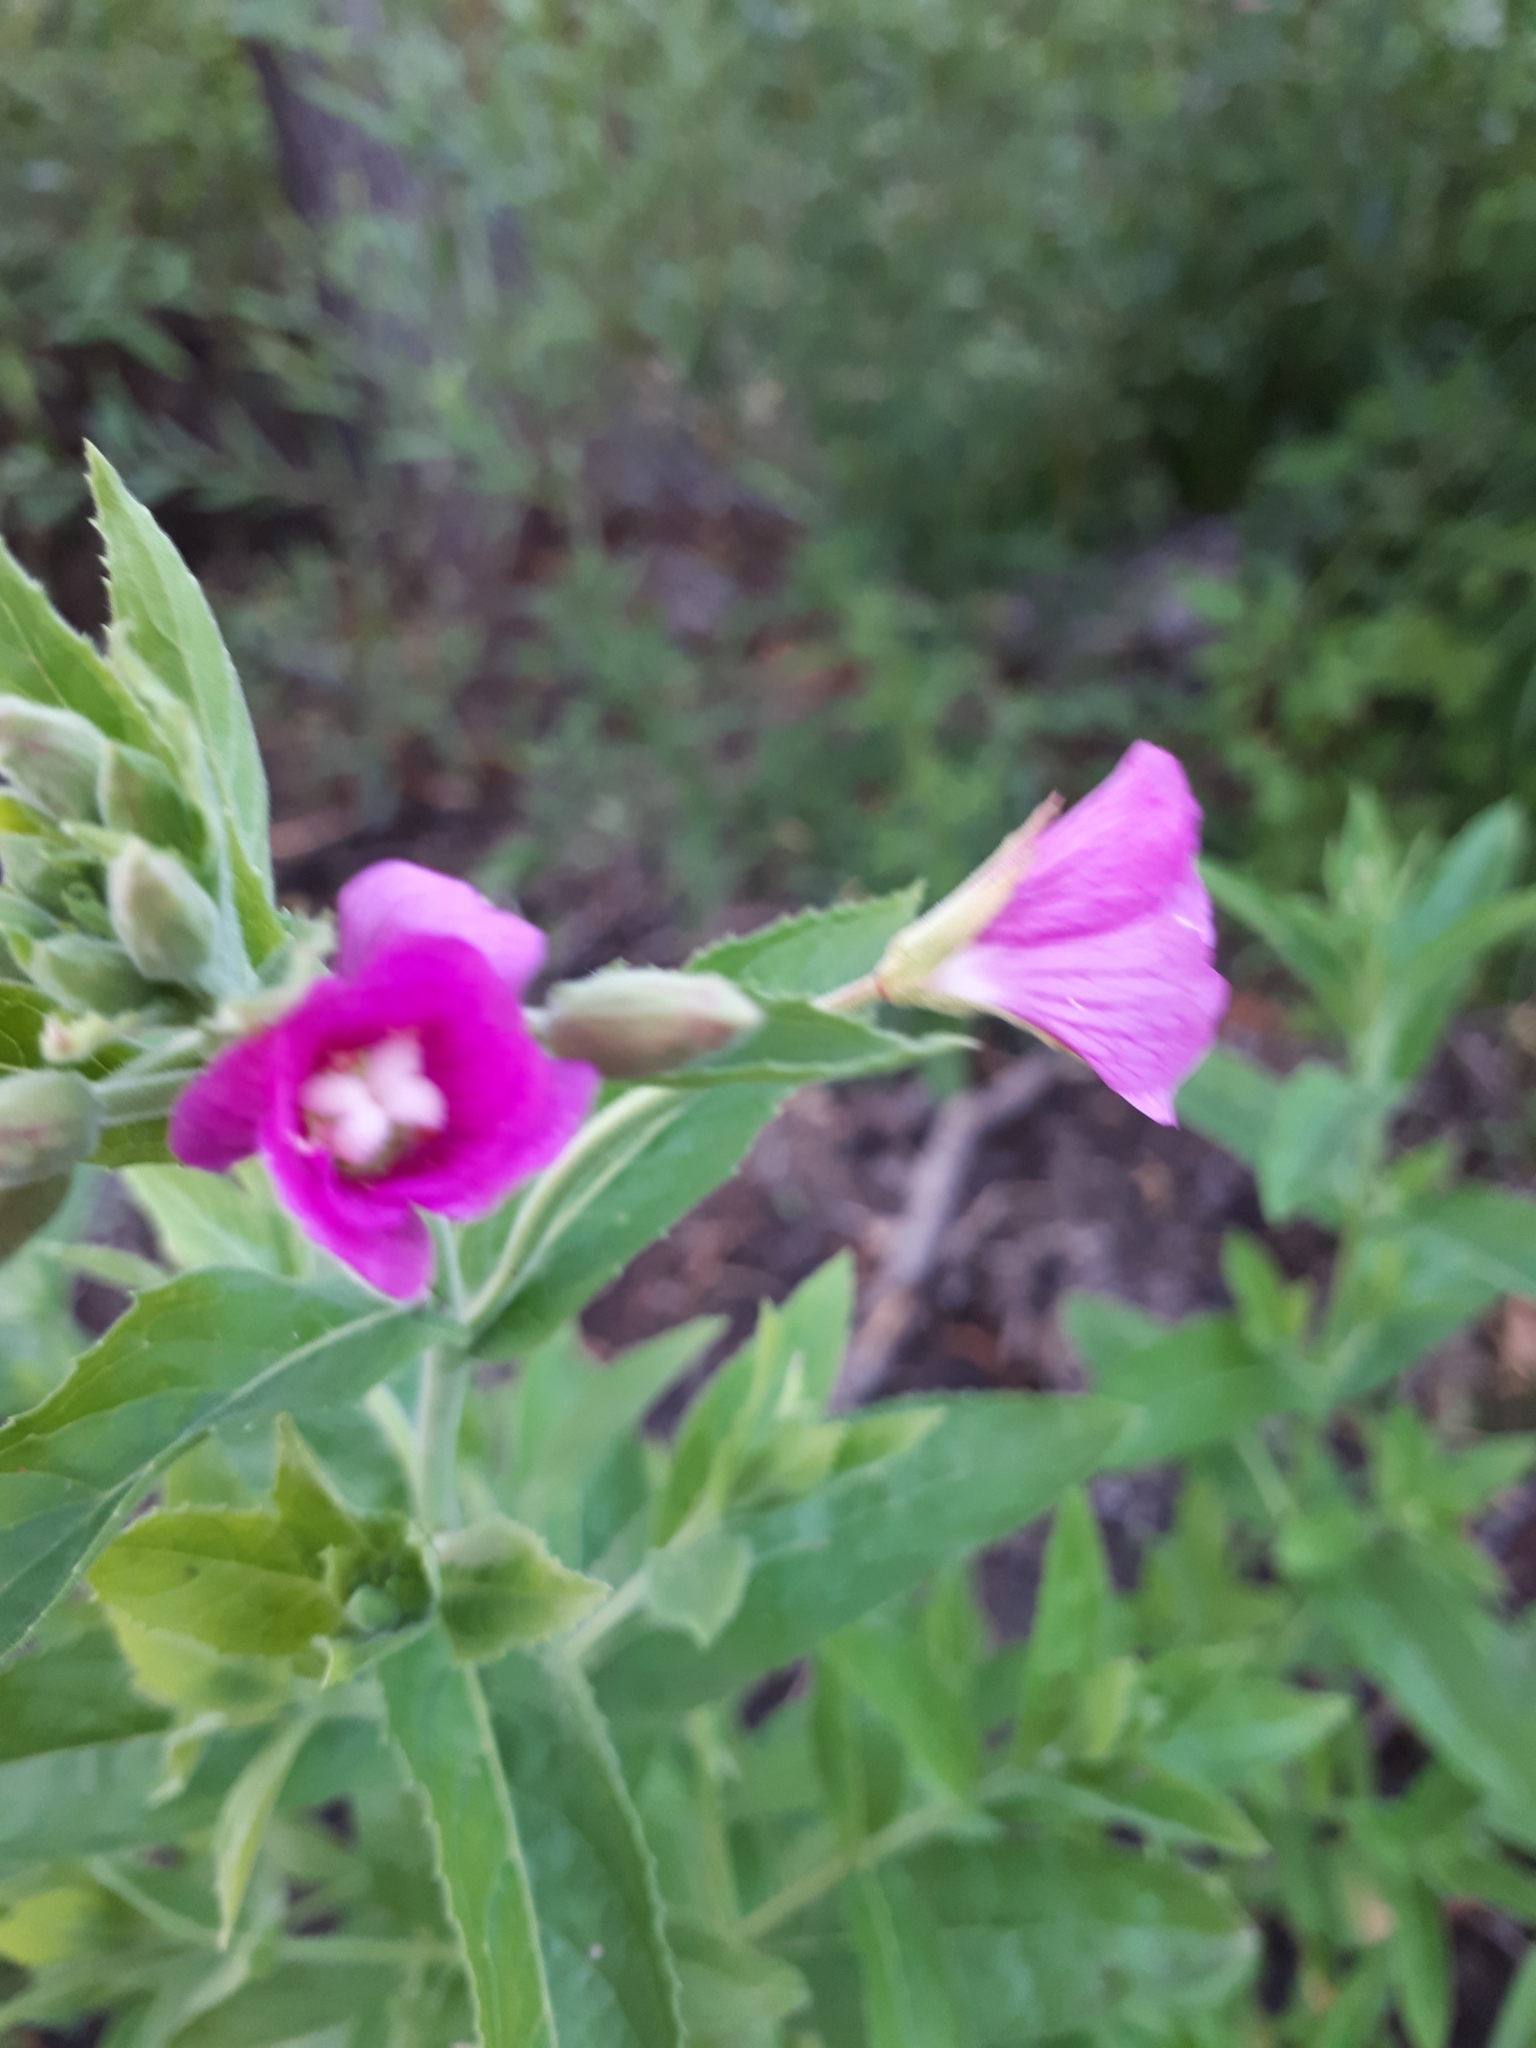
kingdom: Plantae
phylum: Tracheophyta
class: Magnoliopsida
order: Myrtales
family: Onagraceae
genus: Epilobium
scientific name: Epilobium hirsutum
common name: Great willowherb
